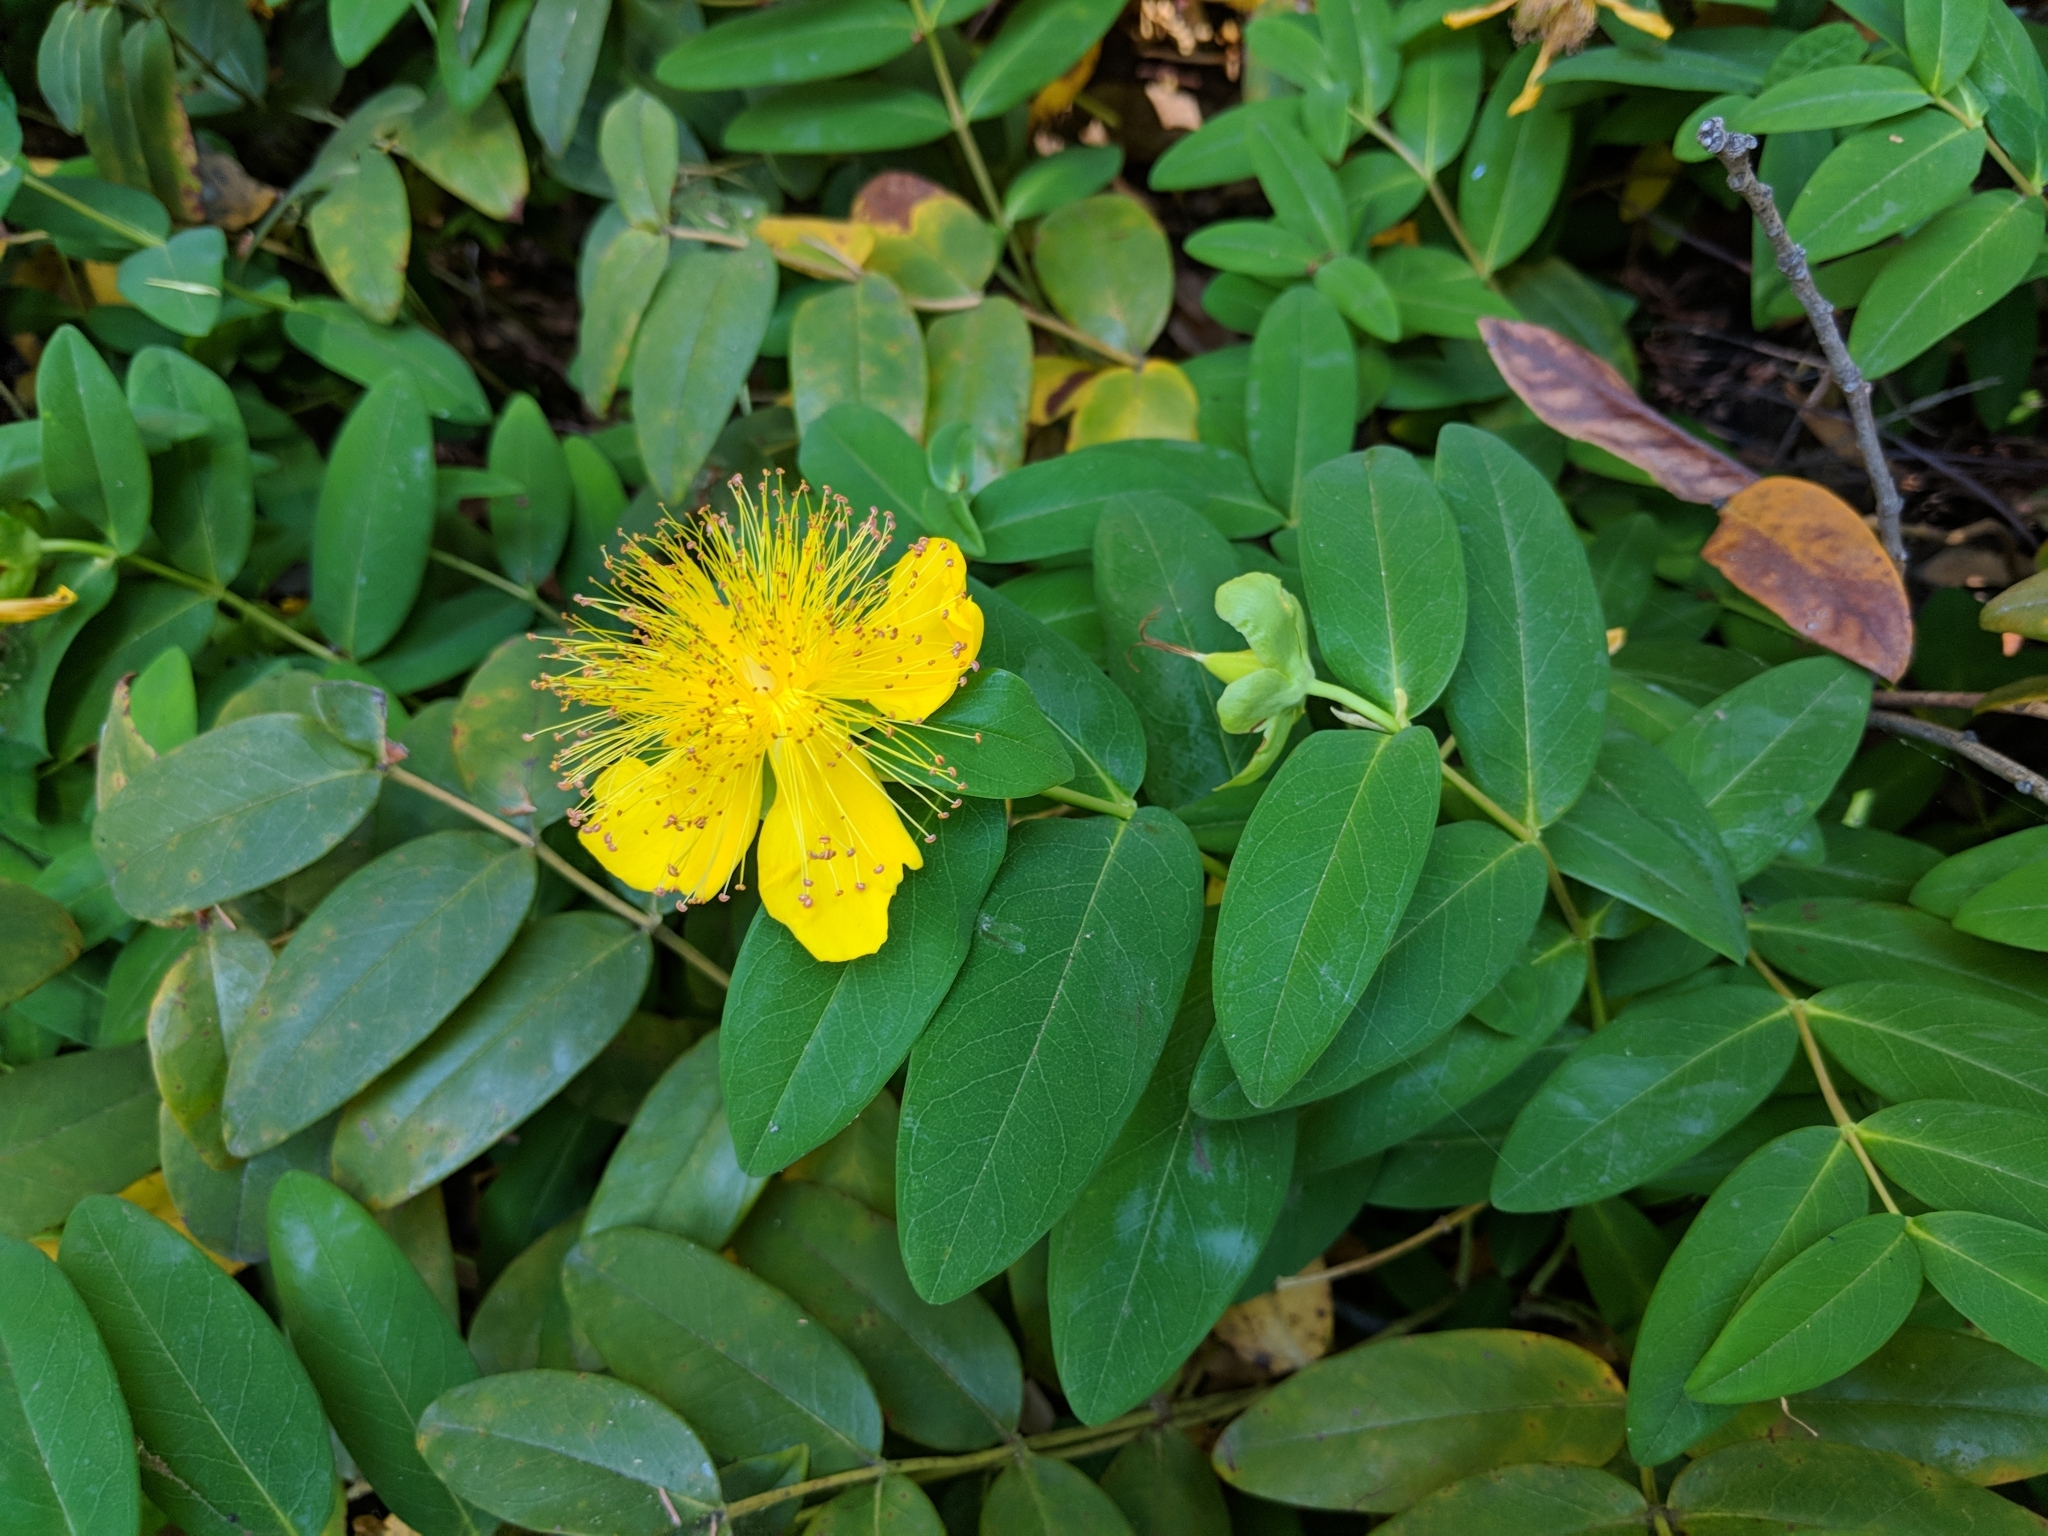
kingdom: Plantae
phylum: Tracheophyta
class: Magnoliopsida
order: Malpighiales
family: Hypericaceae
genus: Hypericum
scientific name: Hypericum calycinum
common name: Rose-of-sharon
